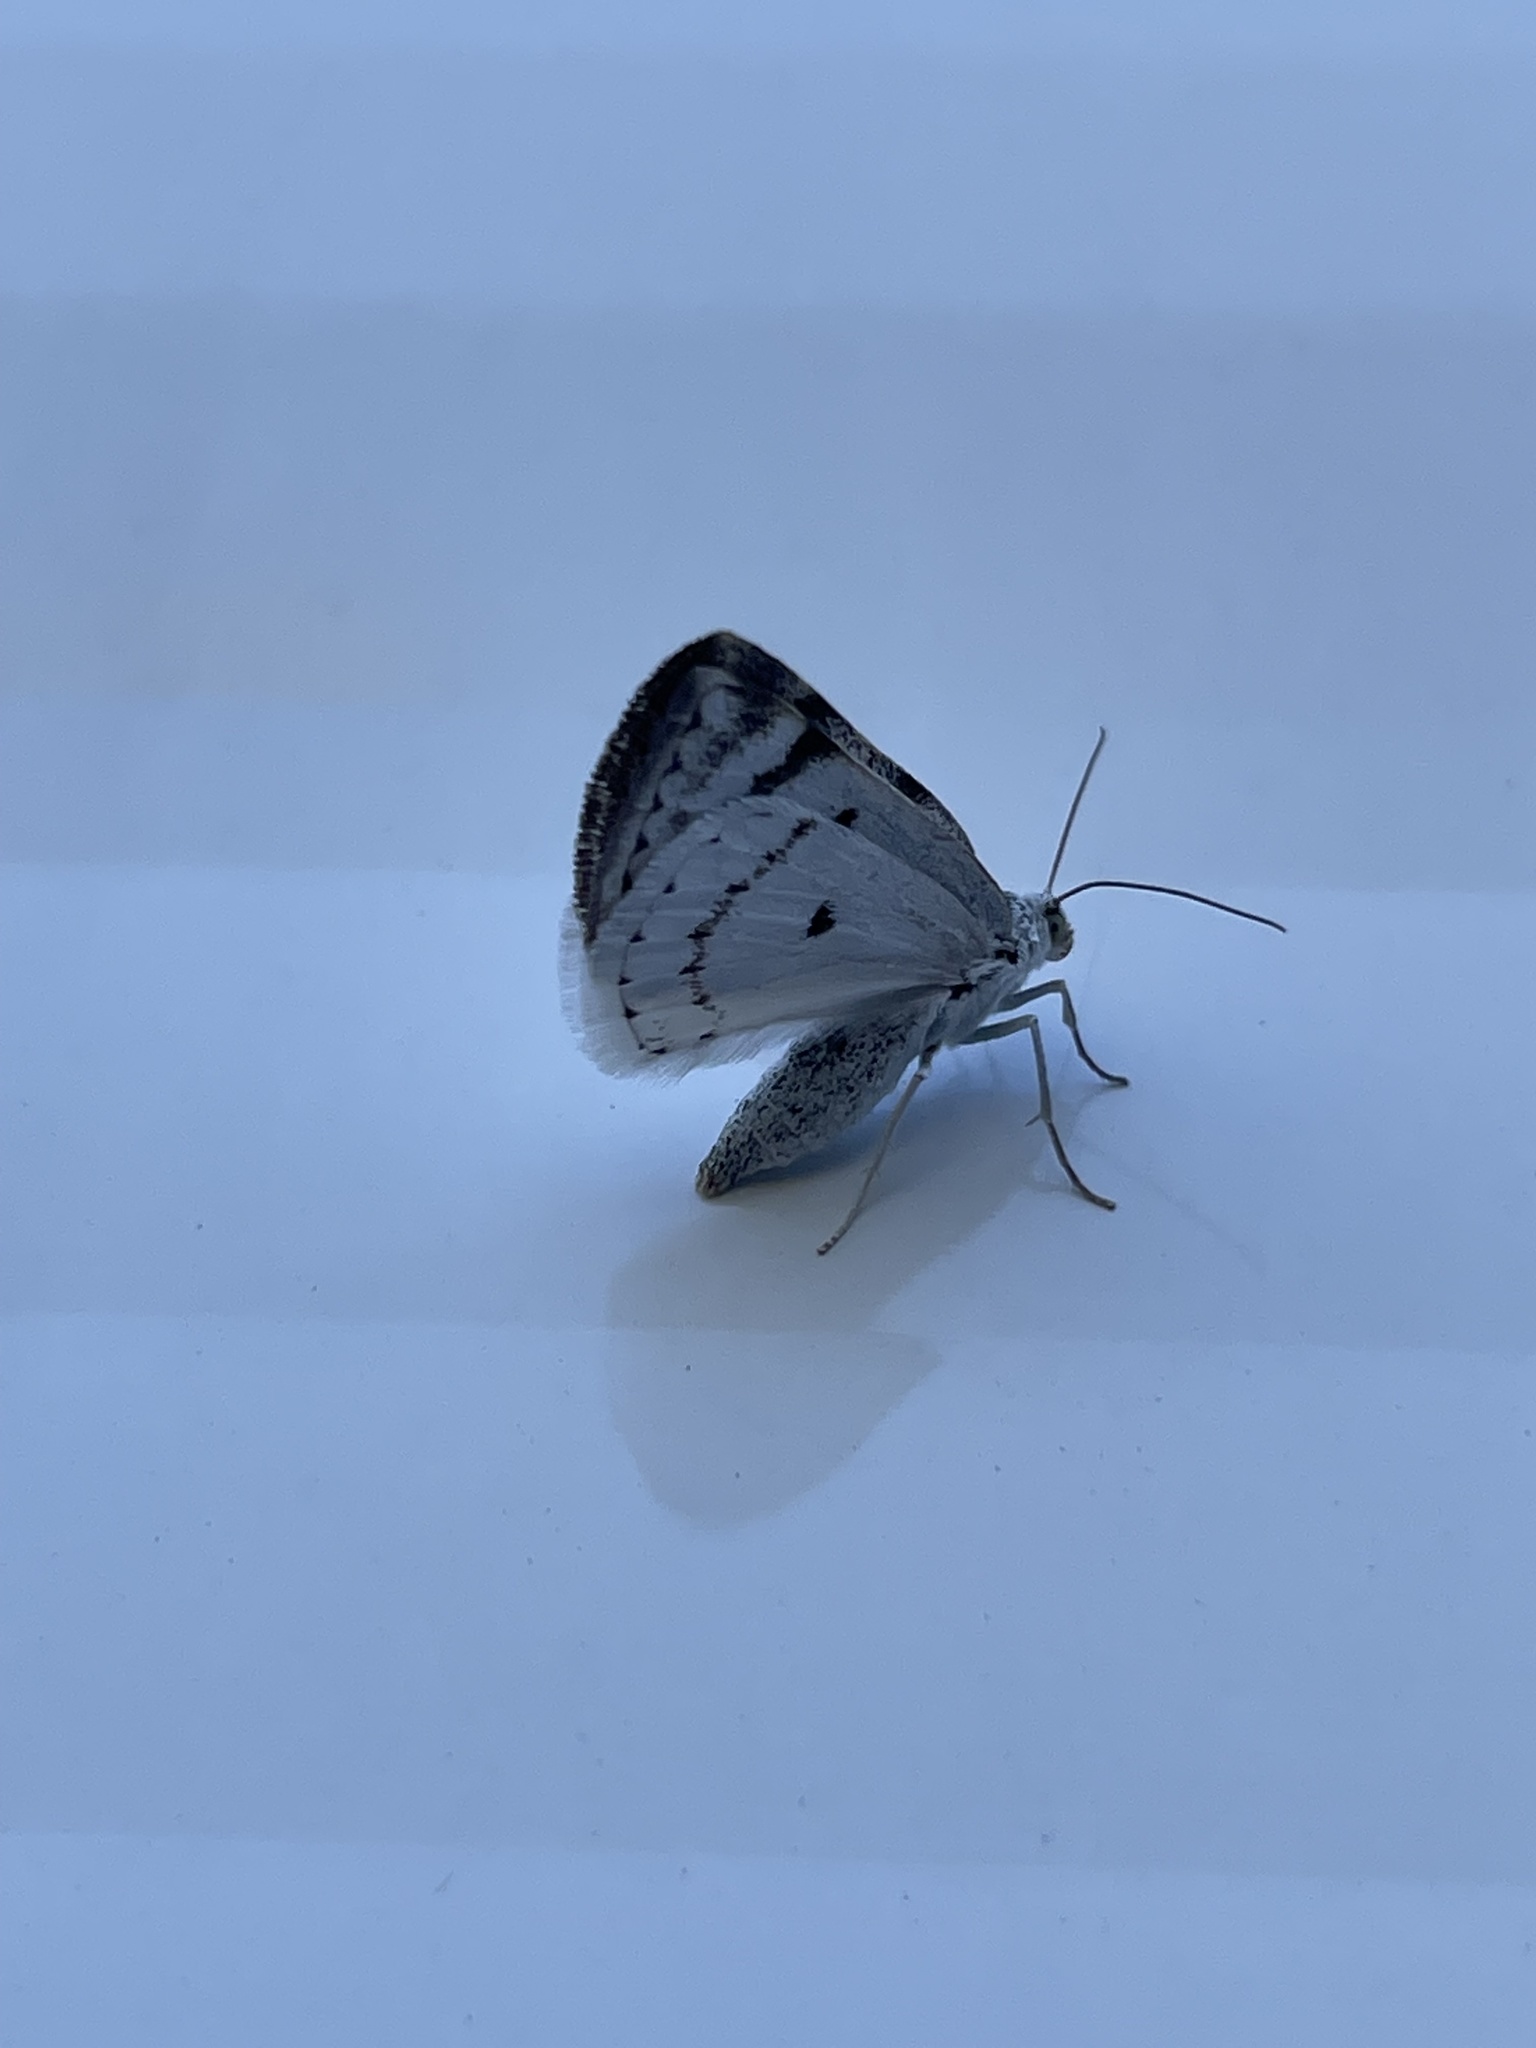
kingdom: Animalia
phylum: Arthropoda
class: Insecta
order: Lepidoptera
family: Geometridae
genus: Lomographa
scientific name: Lomographa semiclarata
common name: Bluish spring moth
